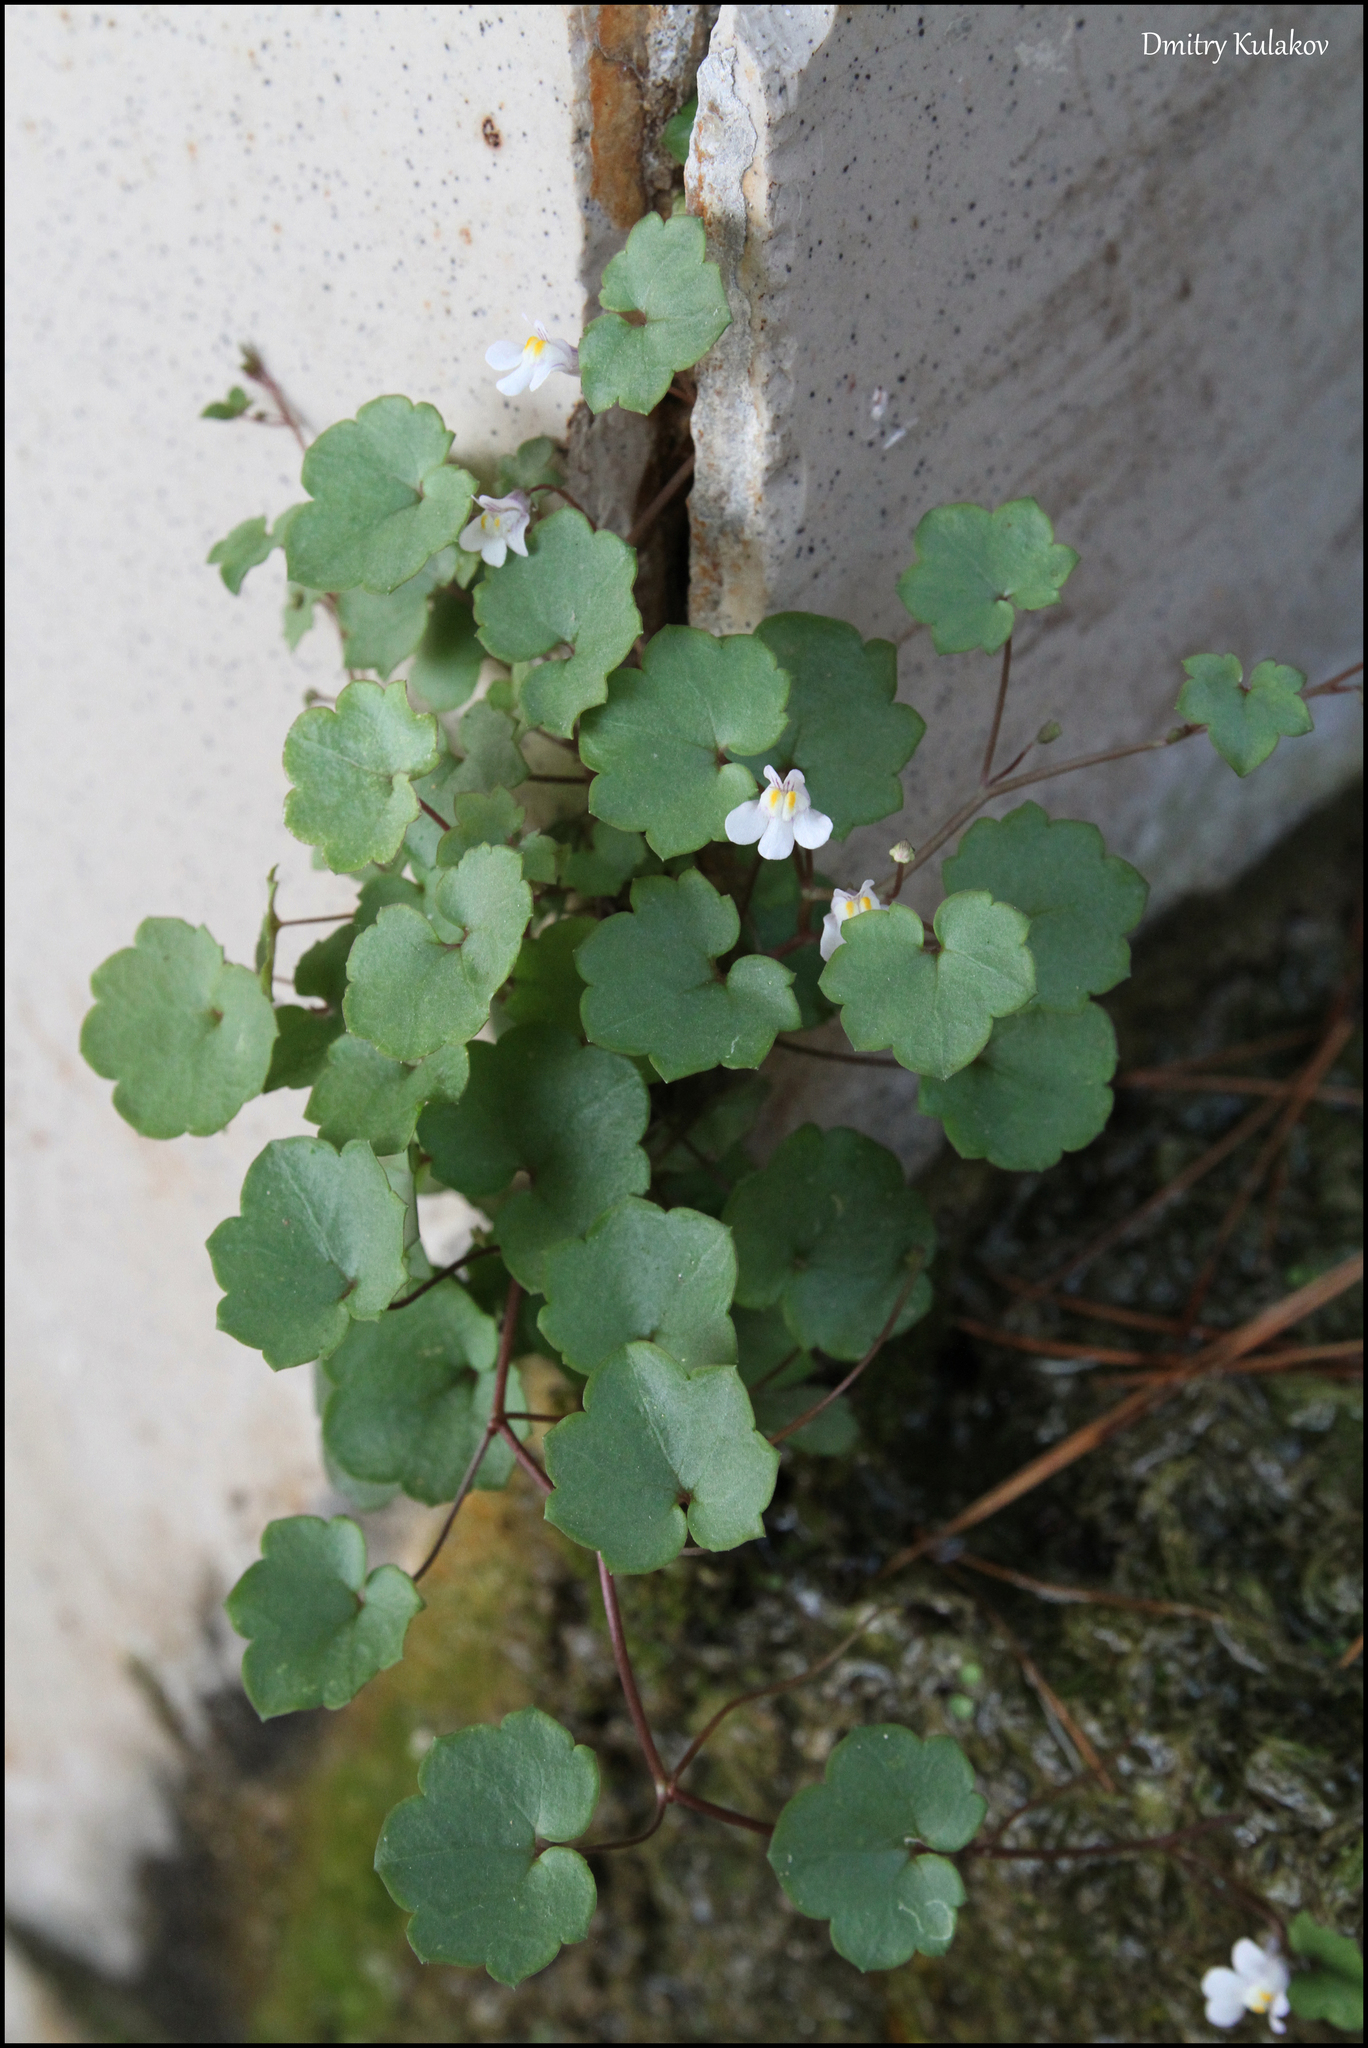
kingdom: Plantae
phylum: Tracheophyta
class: Magnoliopsida
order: Lamiales
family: Plantaginaceae
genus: Cymbalaria
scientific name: Cymbalaria muralis
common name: Ivy-leaved toadflax
